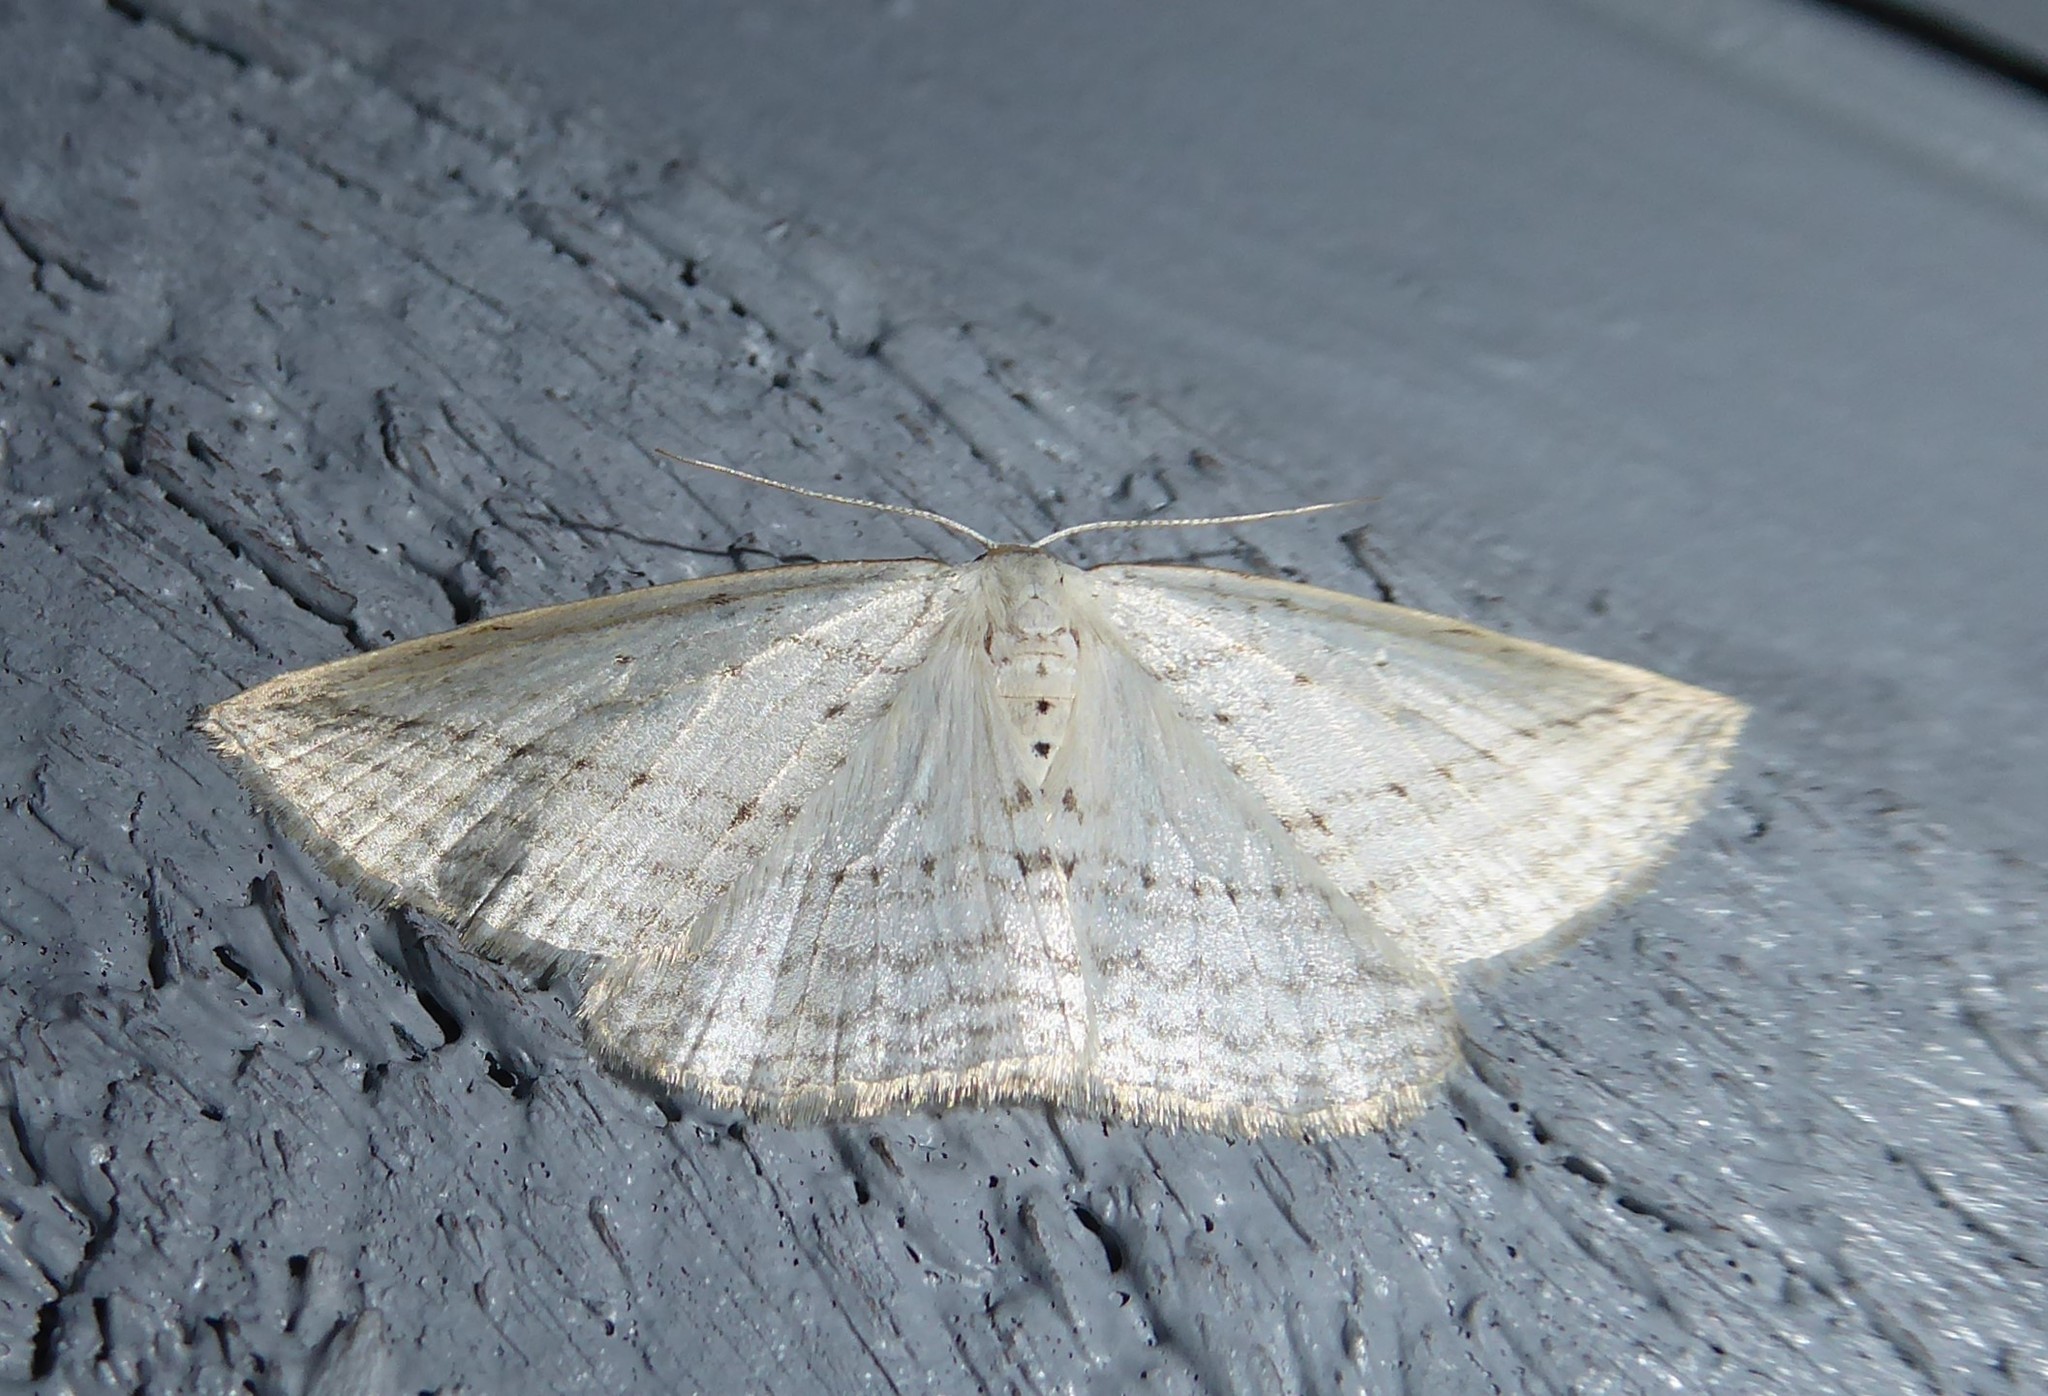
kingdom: Animalia
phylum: Arthropoda
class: Insecta
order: Lepidoptera
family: Geometridae
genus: Orthoclydon
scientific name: Orthoclydon praefectata
